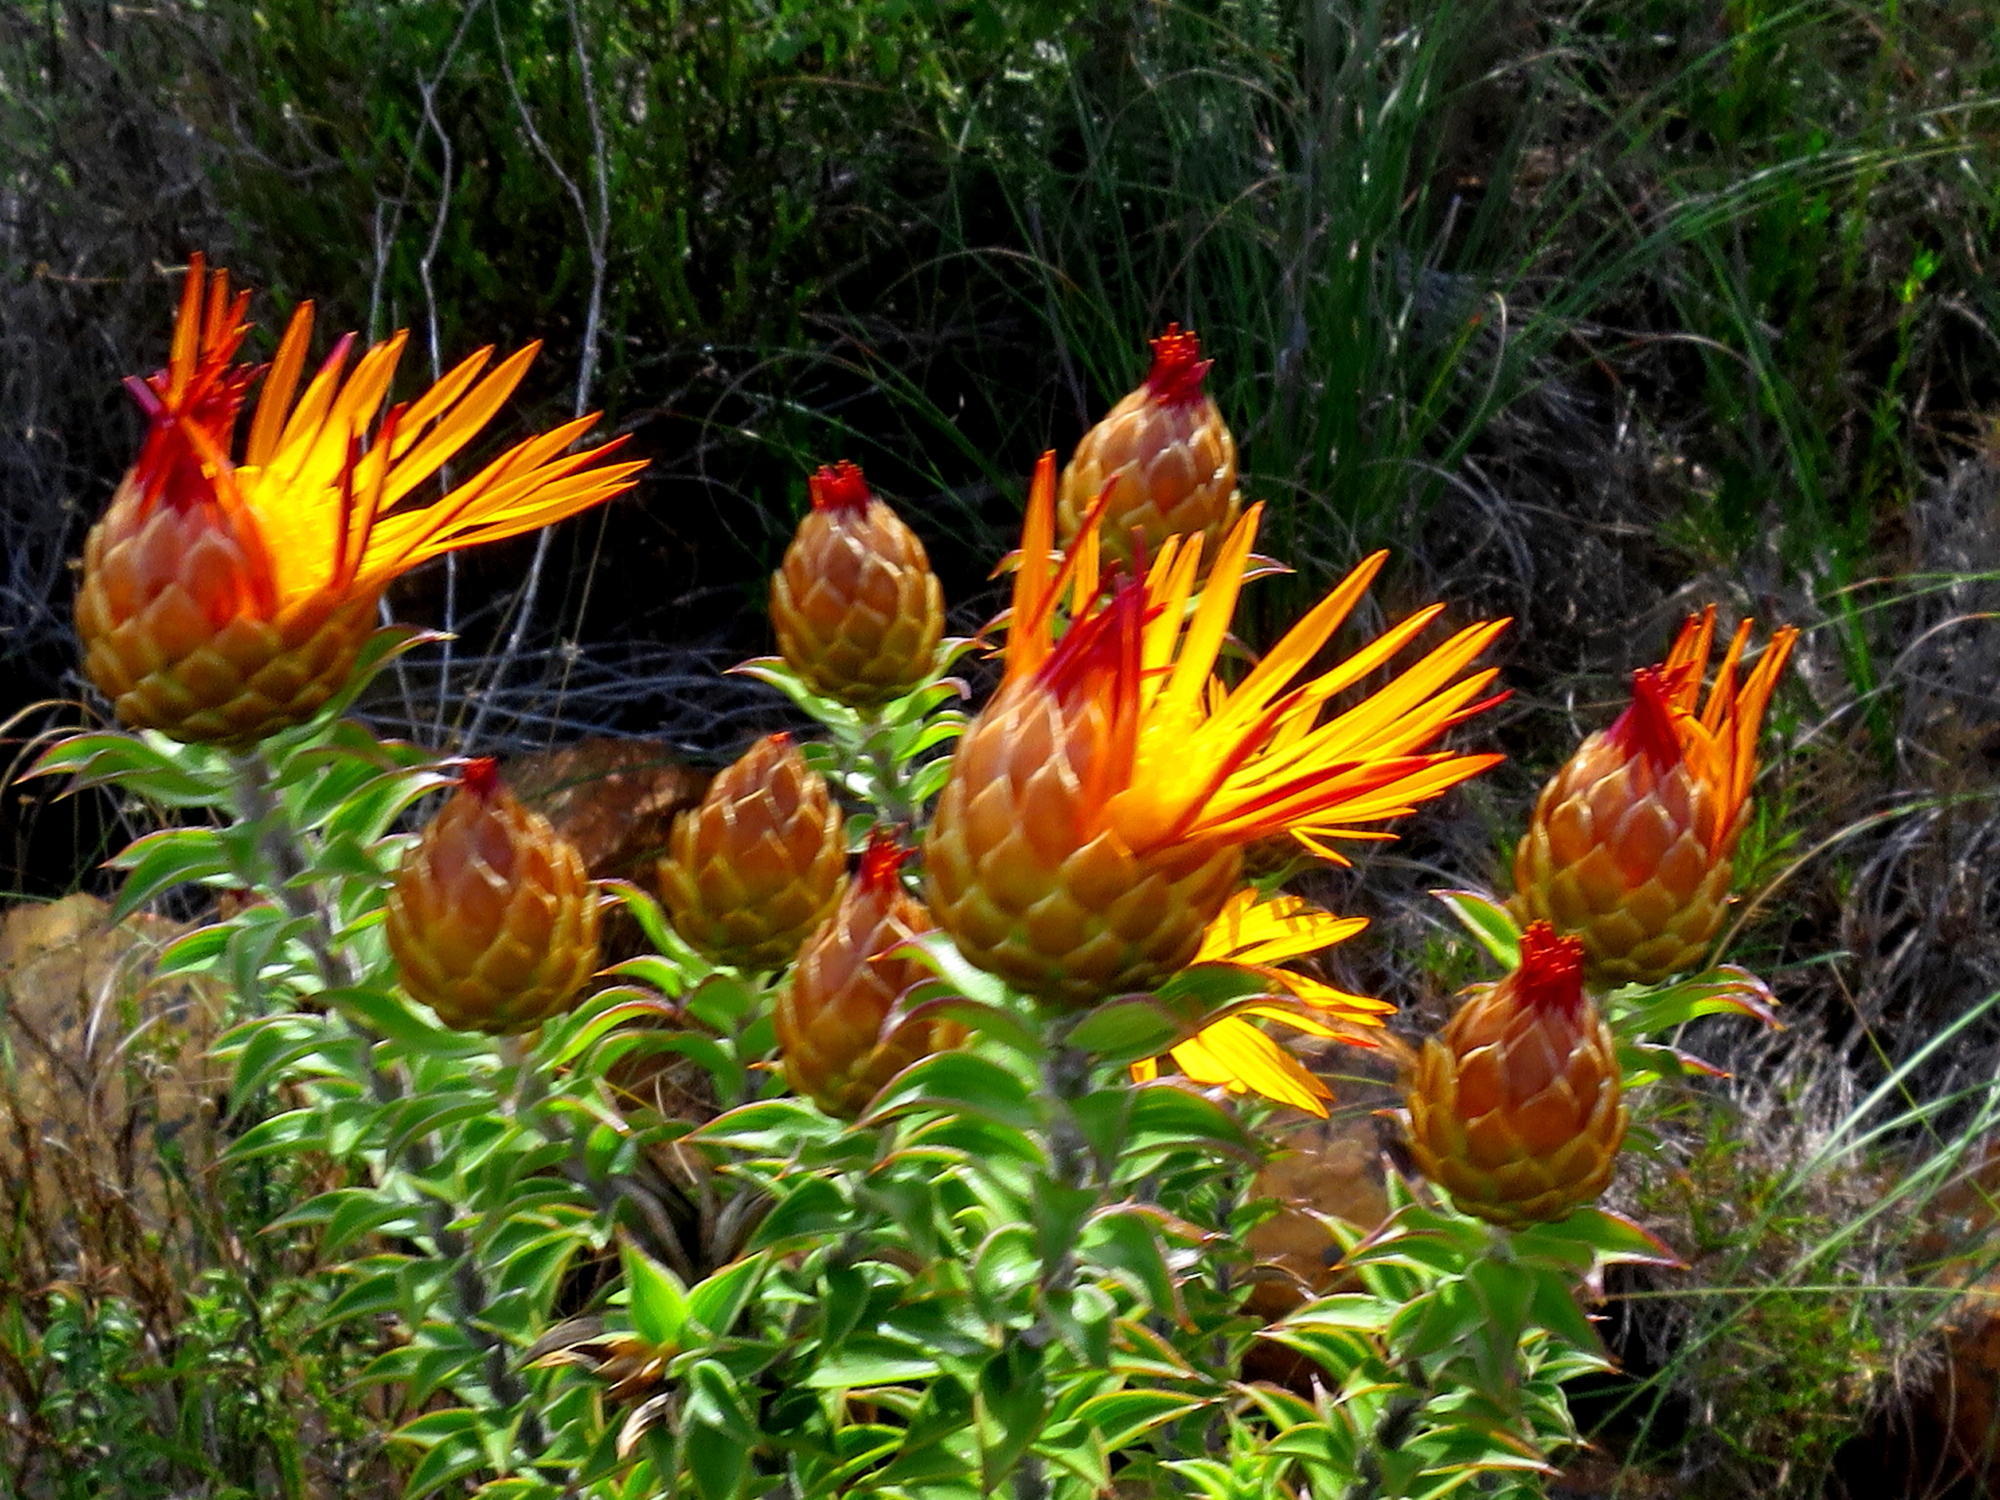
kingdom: Plantae
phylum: Tracheophyta
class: Magnoliopsida
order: Asterales
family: Asteraceae
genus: Oedera
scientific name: Oedera speciosa
